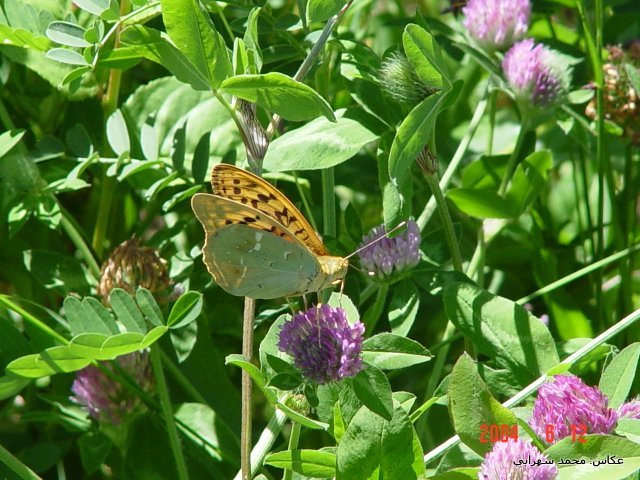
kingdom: Animalia
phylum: Arthropoda
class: Insecta
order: Lepidoptera
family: Nymphalidae
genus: Damora
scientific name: Damora pandora
